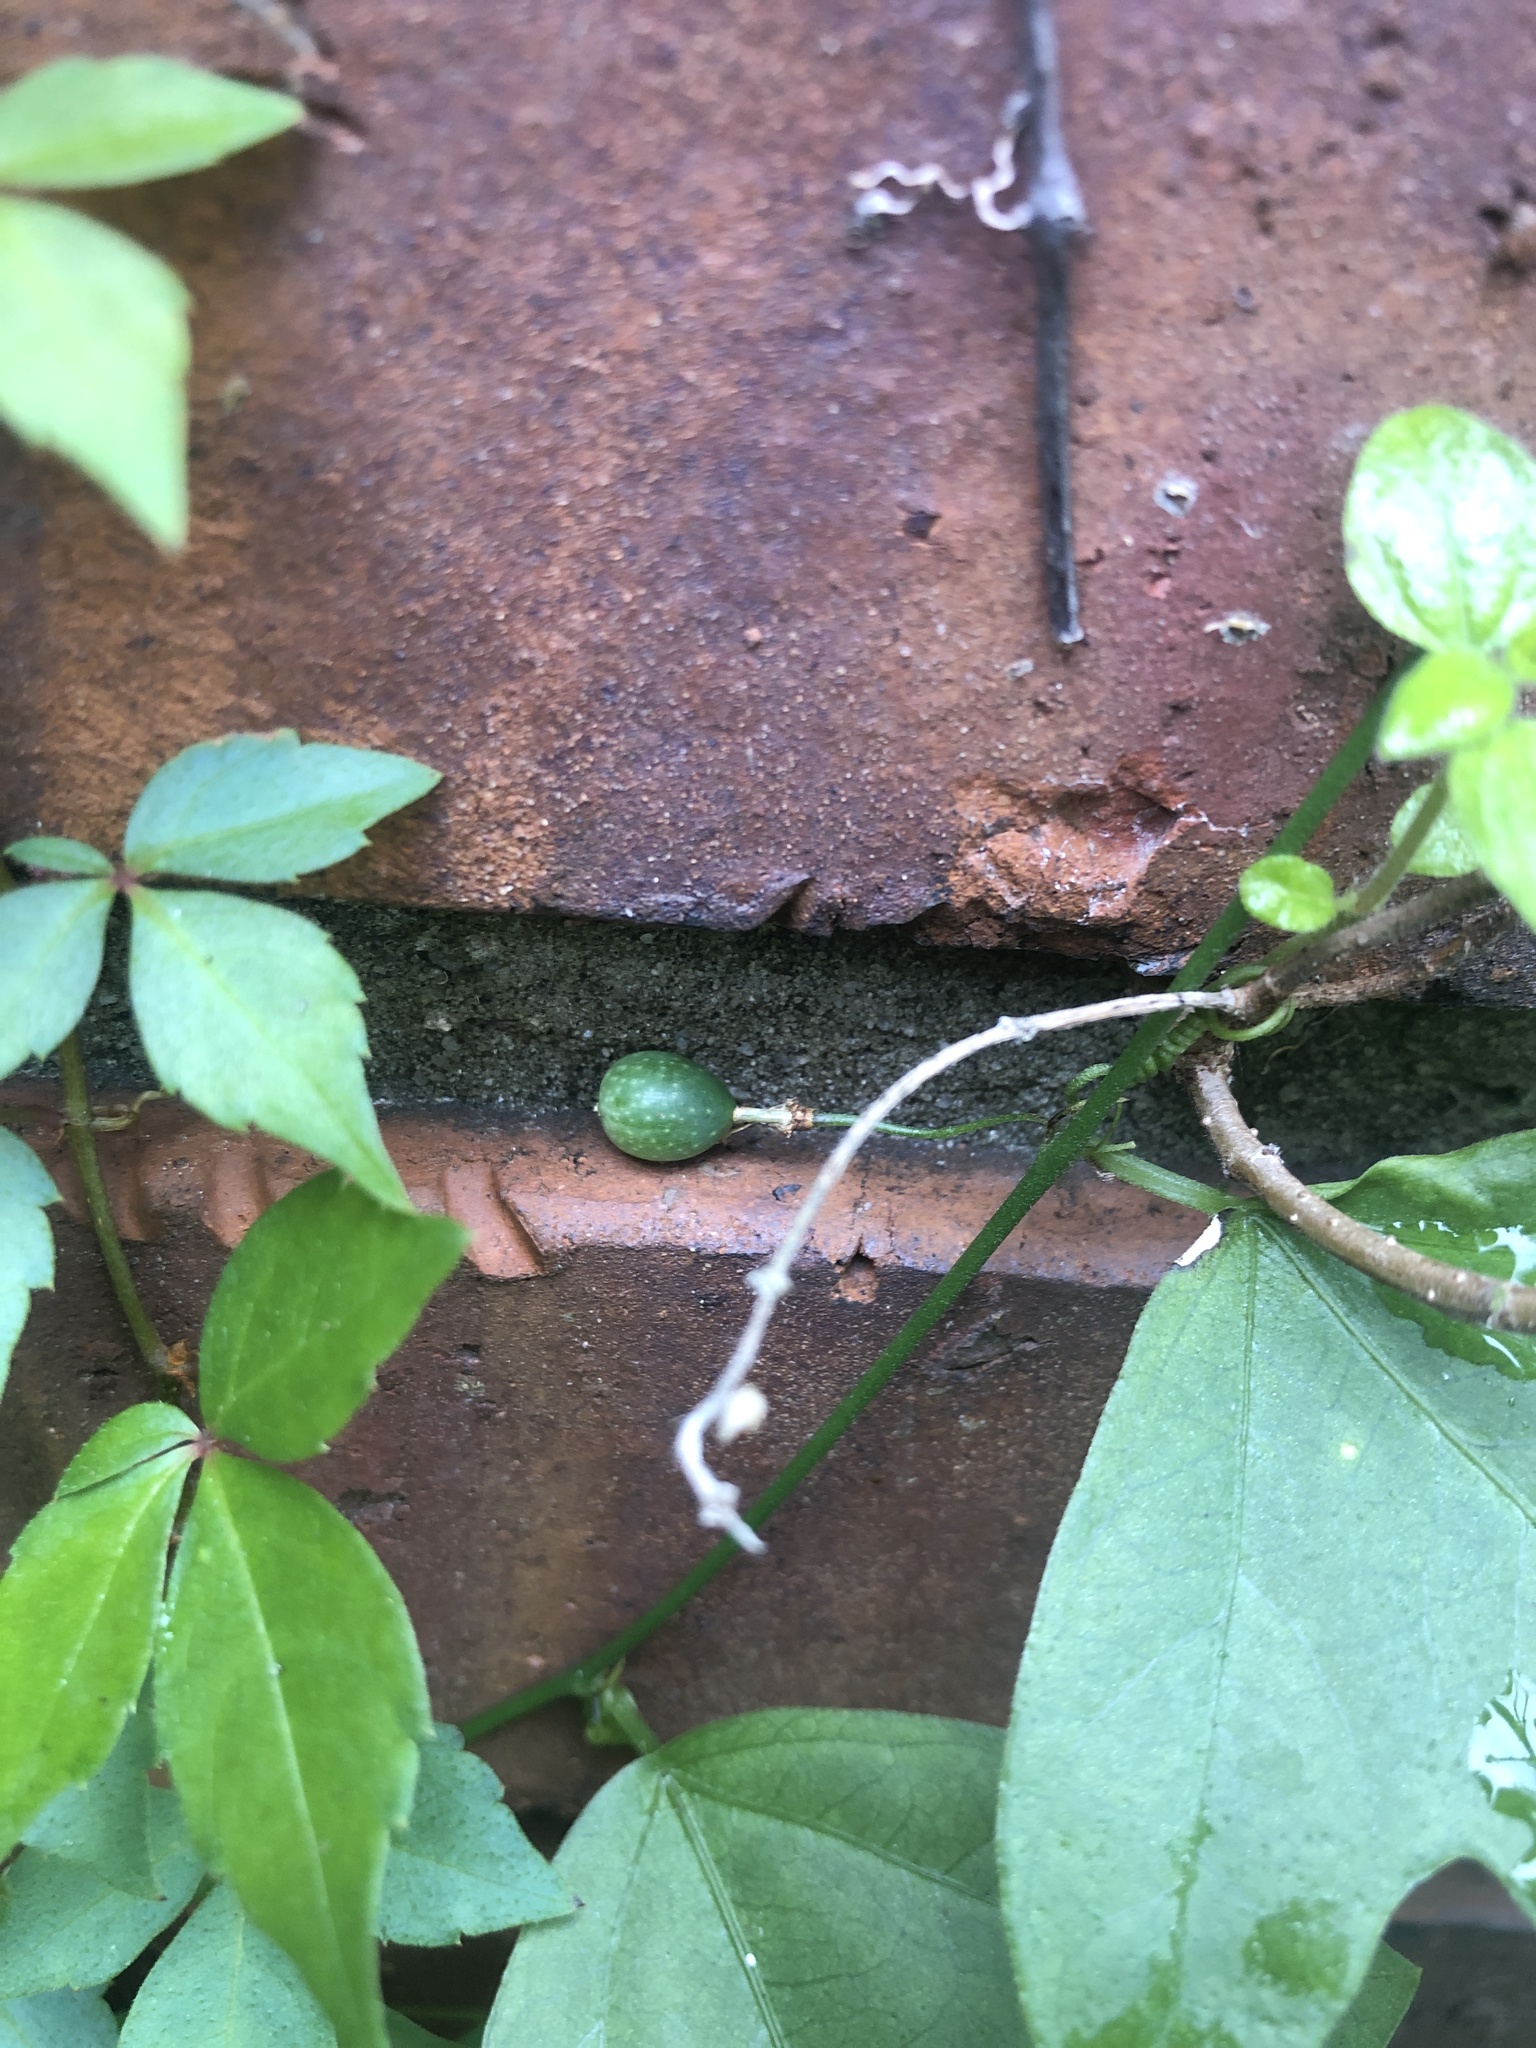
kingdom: Plantae
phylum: Tracheophyta
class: Magnoliopsida
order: Malpighiales
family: Passifloraceae
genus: Passiflora
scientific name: Passiflora pallida
